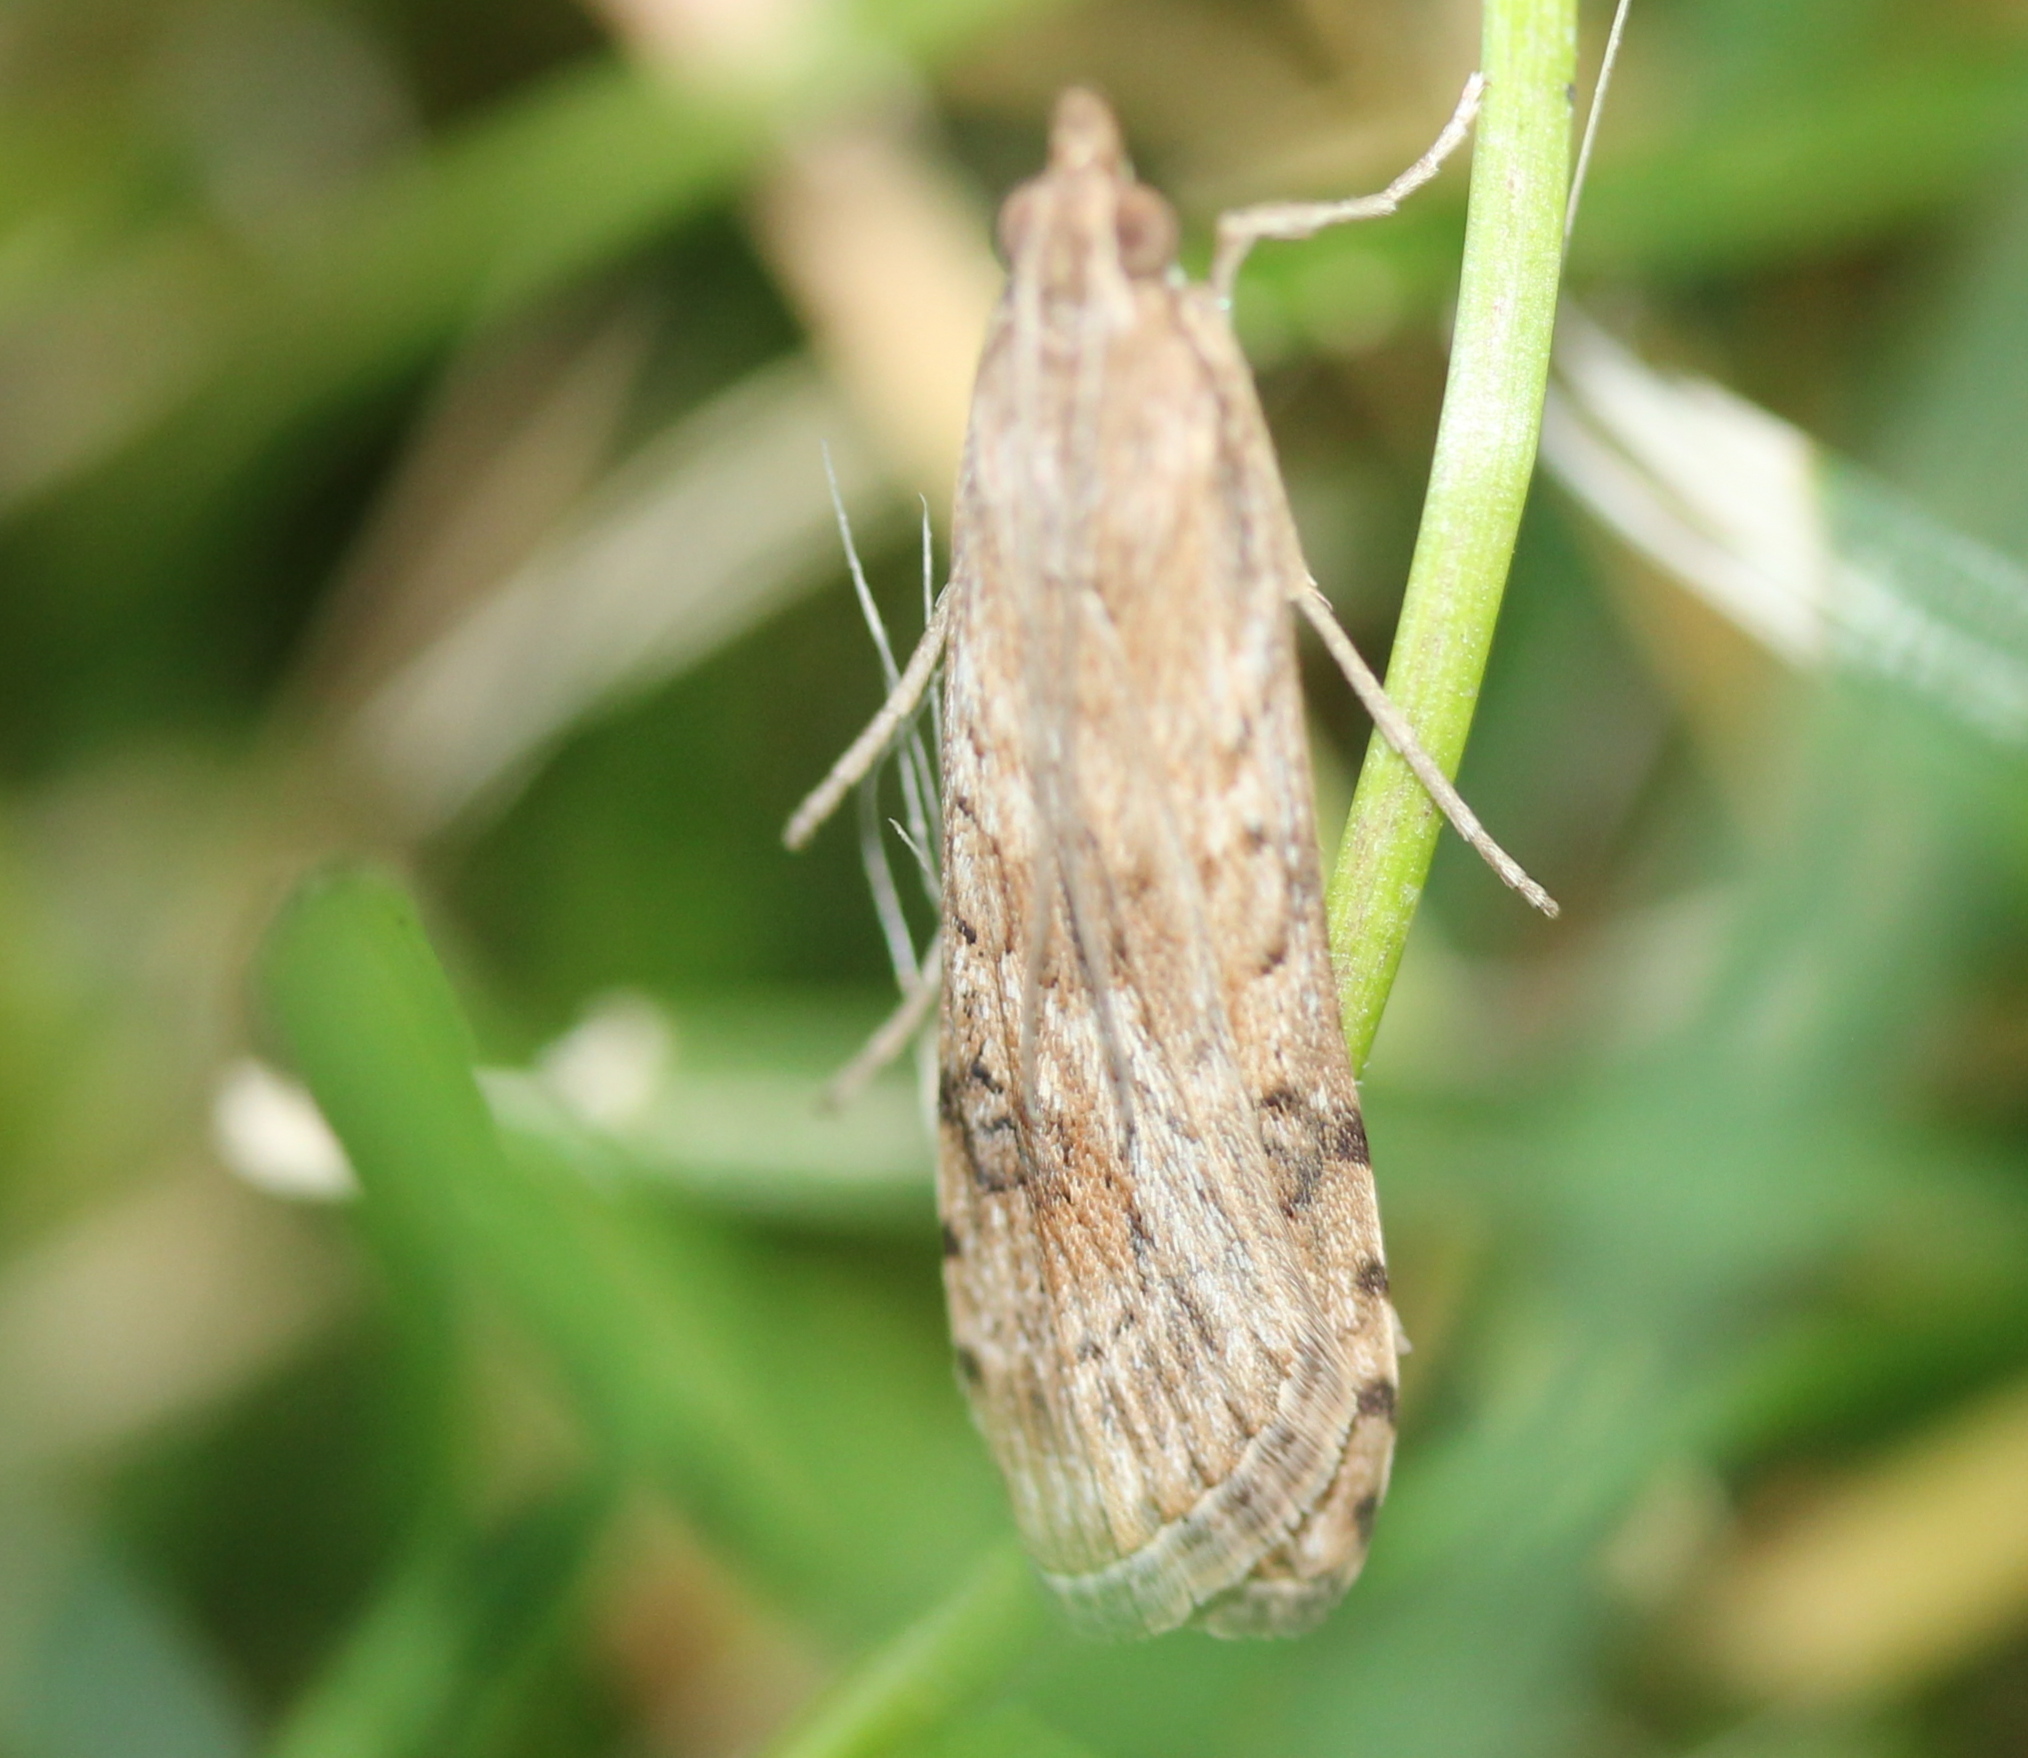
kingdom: Animalia
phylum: Arthropoda
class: Insecta
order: Lepidoptera
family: Crambidae
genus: Nomophila
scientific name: Nomophila nearctica
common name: American rush veneer
